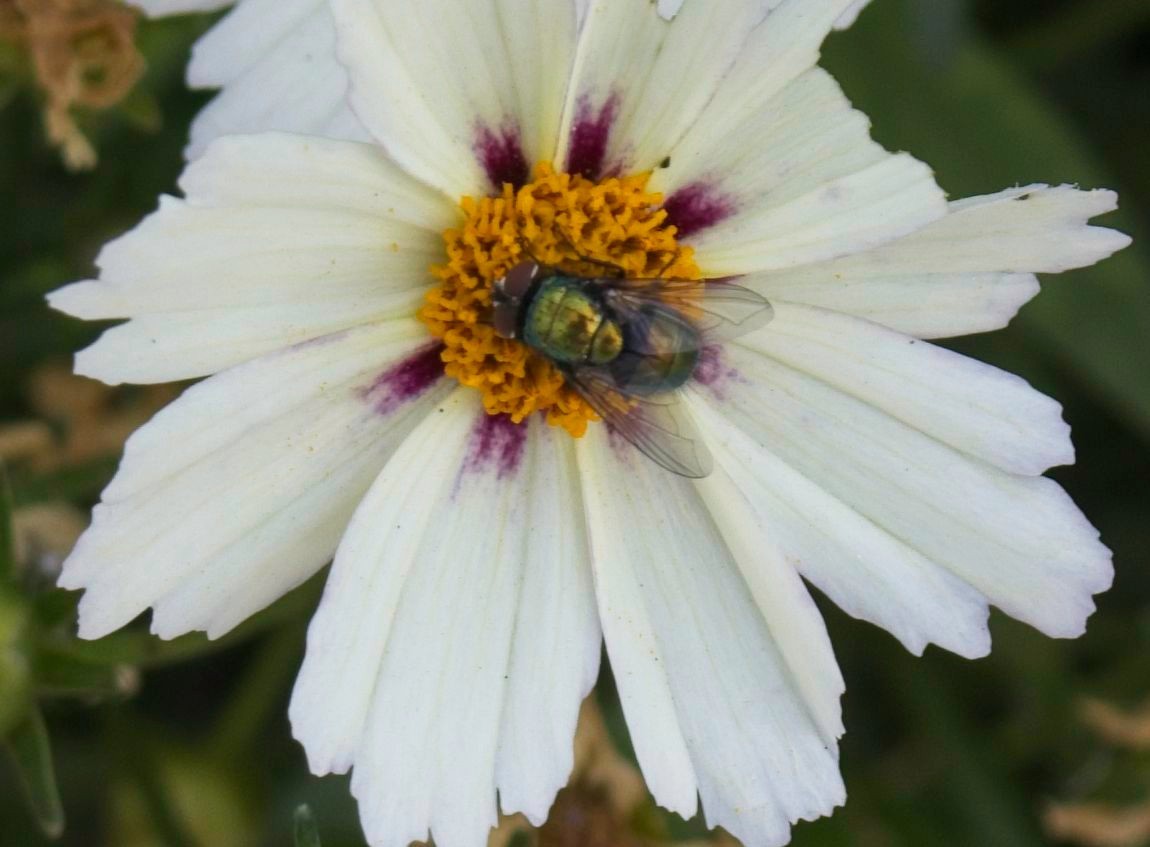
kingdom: Animalia
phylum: Arthropoda
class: Insecta
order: Diptera
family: Calliphoridae
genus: Lucilia
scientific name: Lucilia sericata
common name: Blow fly
